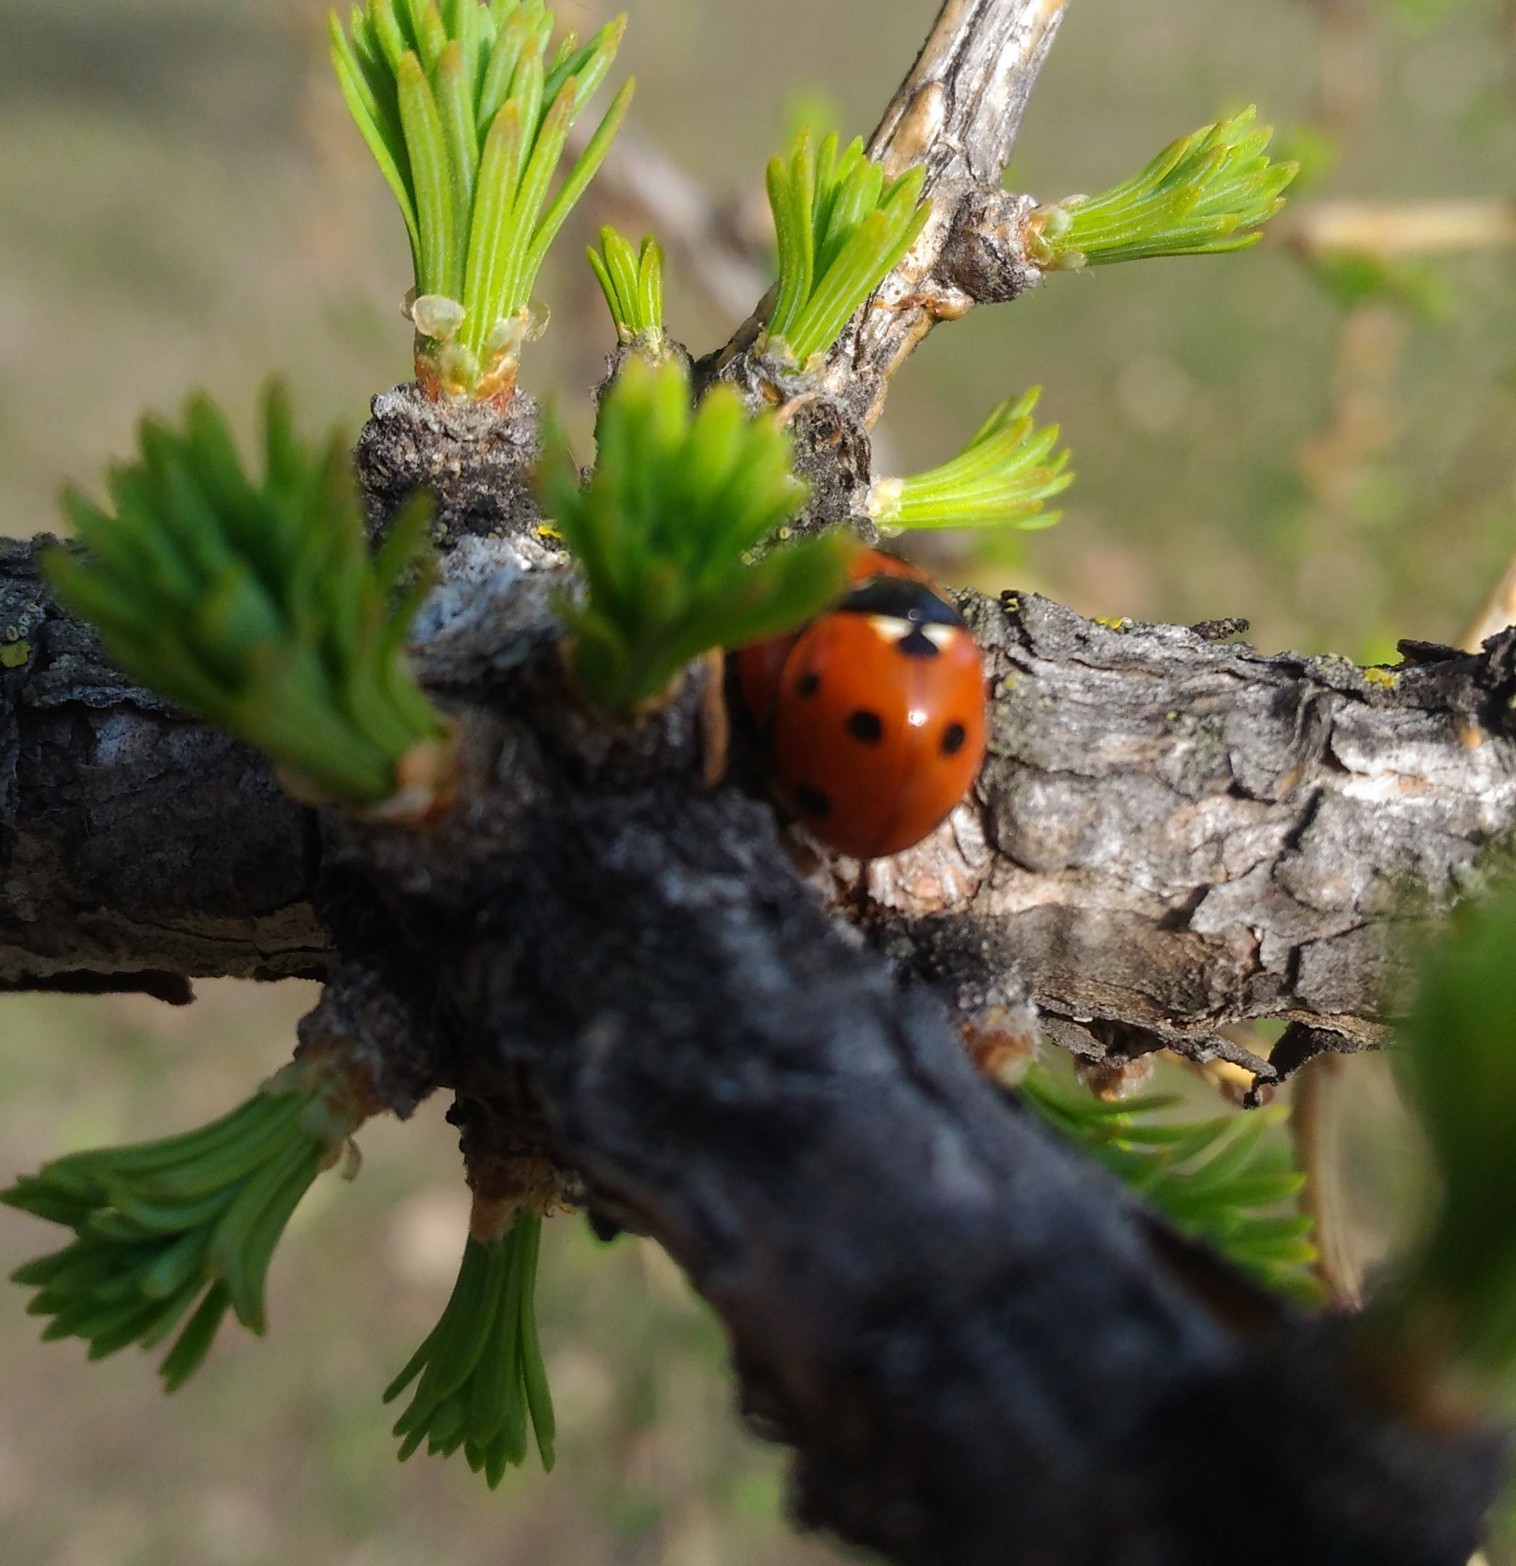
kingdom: Animalia
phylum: Arthropoda
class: Insecta
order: Coleoptera
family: Coccinellidae
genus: Coccinella
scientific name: Coccinella septempunctata
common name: Sevenspotted lady beetle
